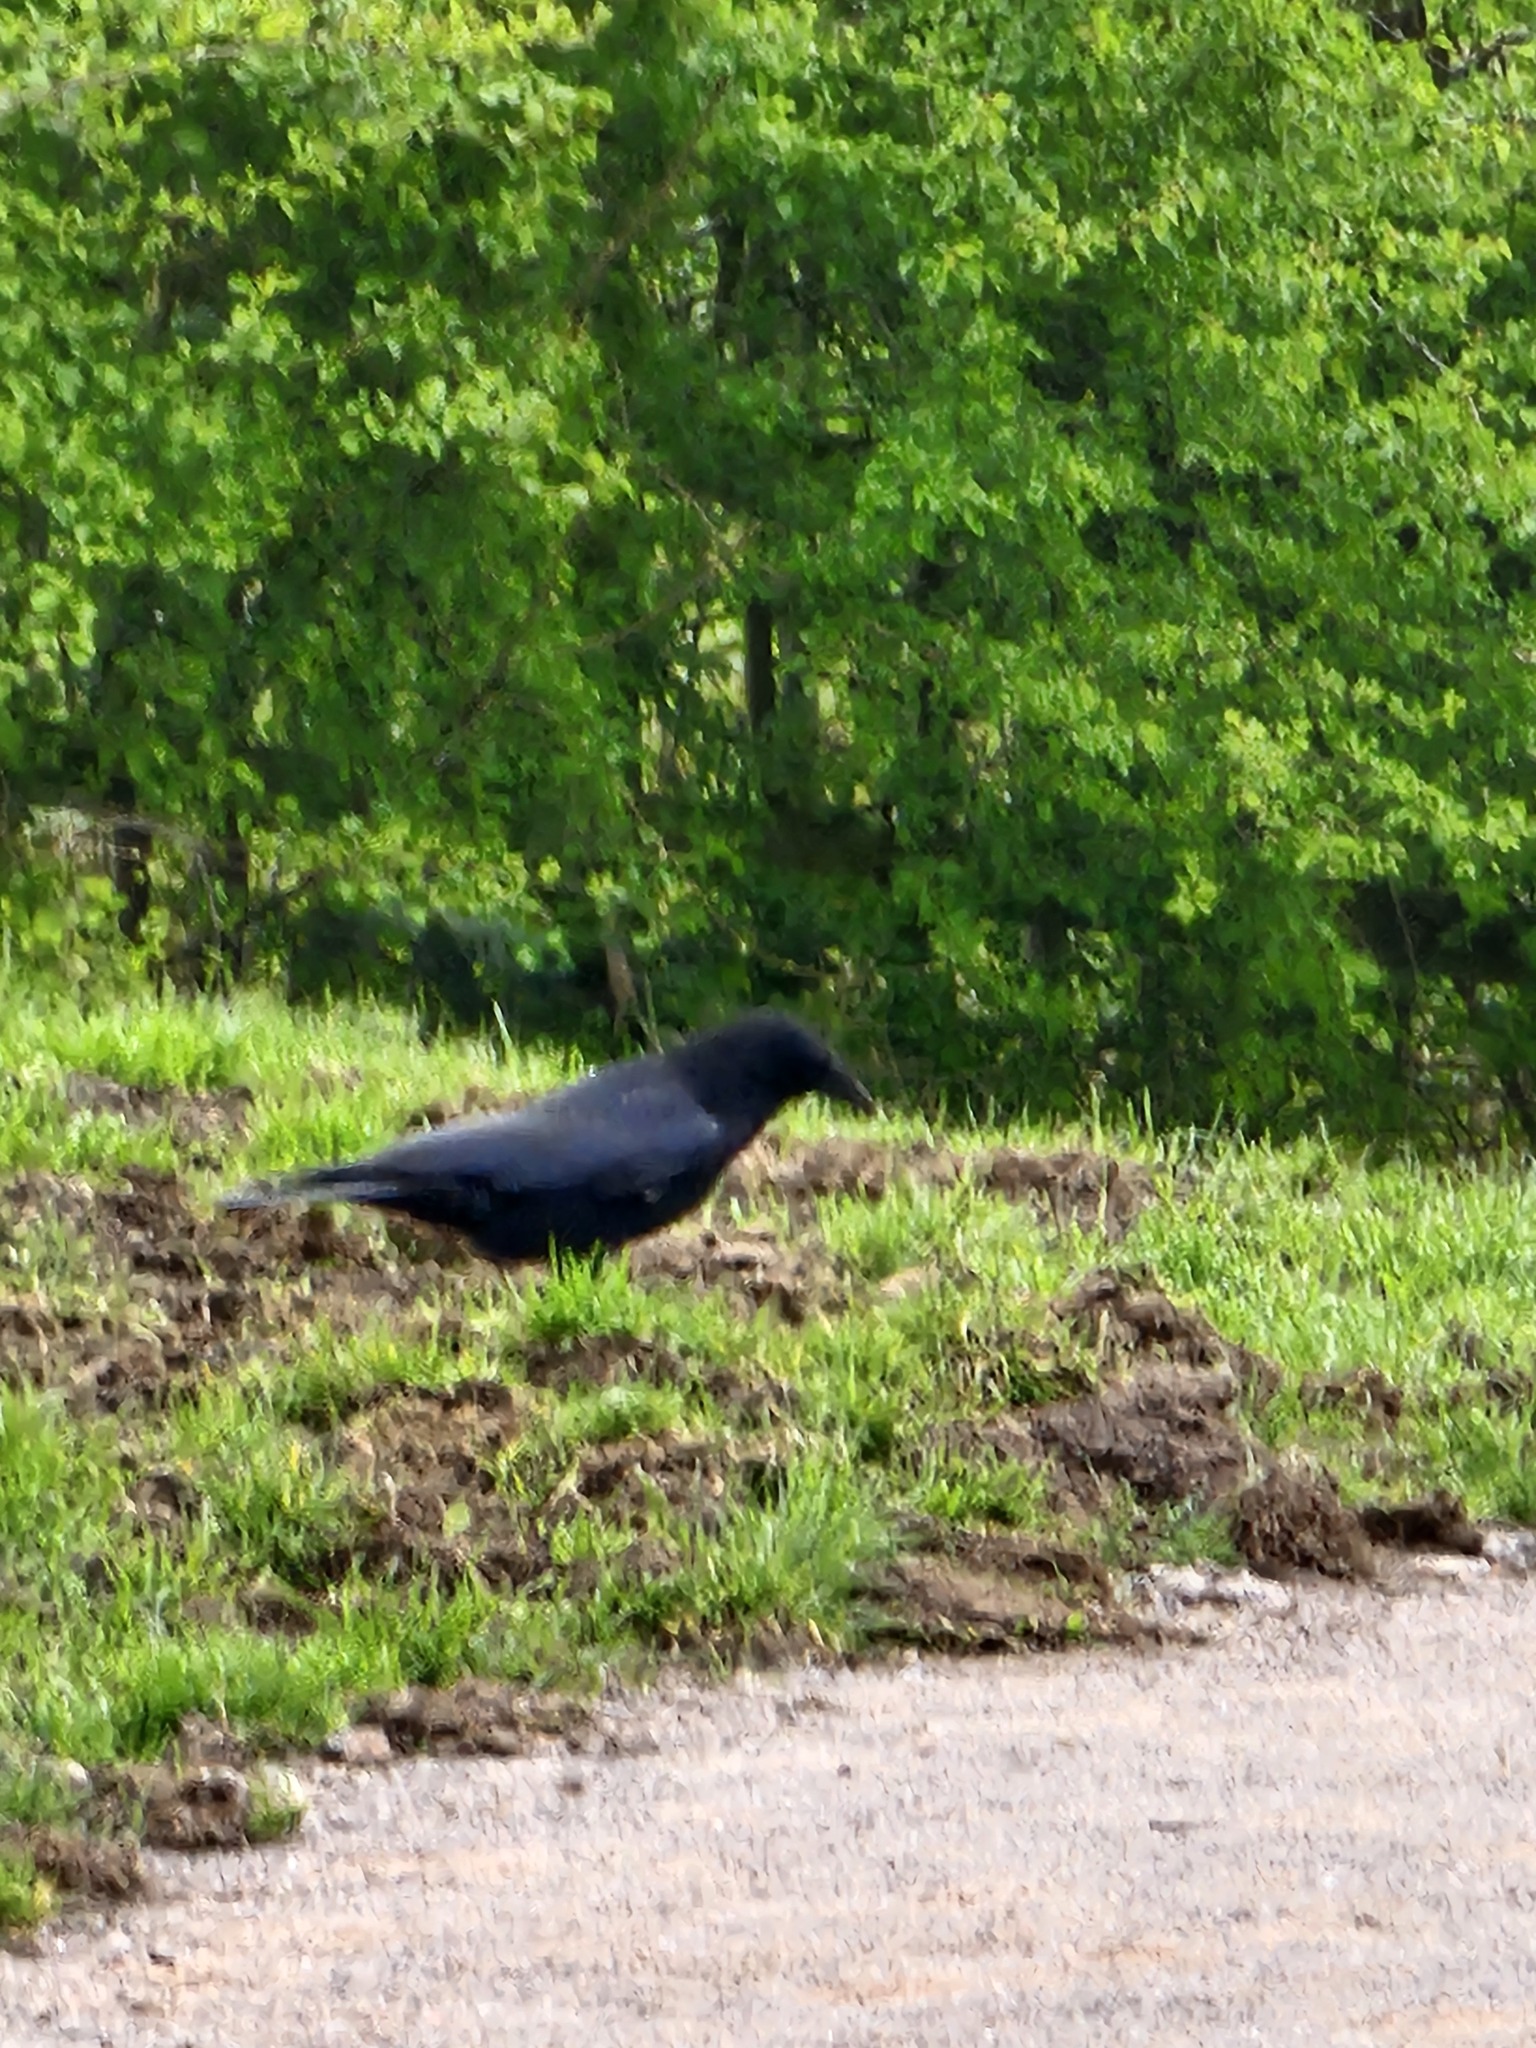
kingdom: Animalia
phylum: Chordata
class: Aves
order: Passeriformes
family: Corvidae
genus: Corvus
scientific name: Corvus corone
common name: Carrion crow
